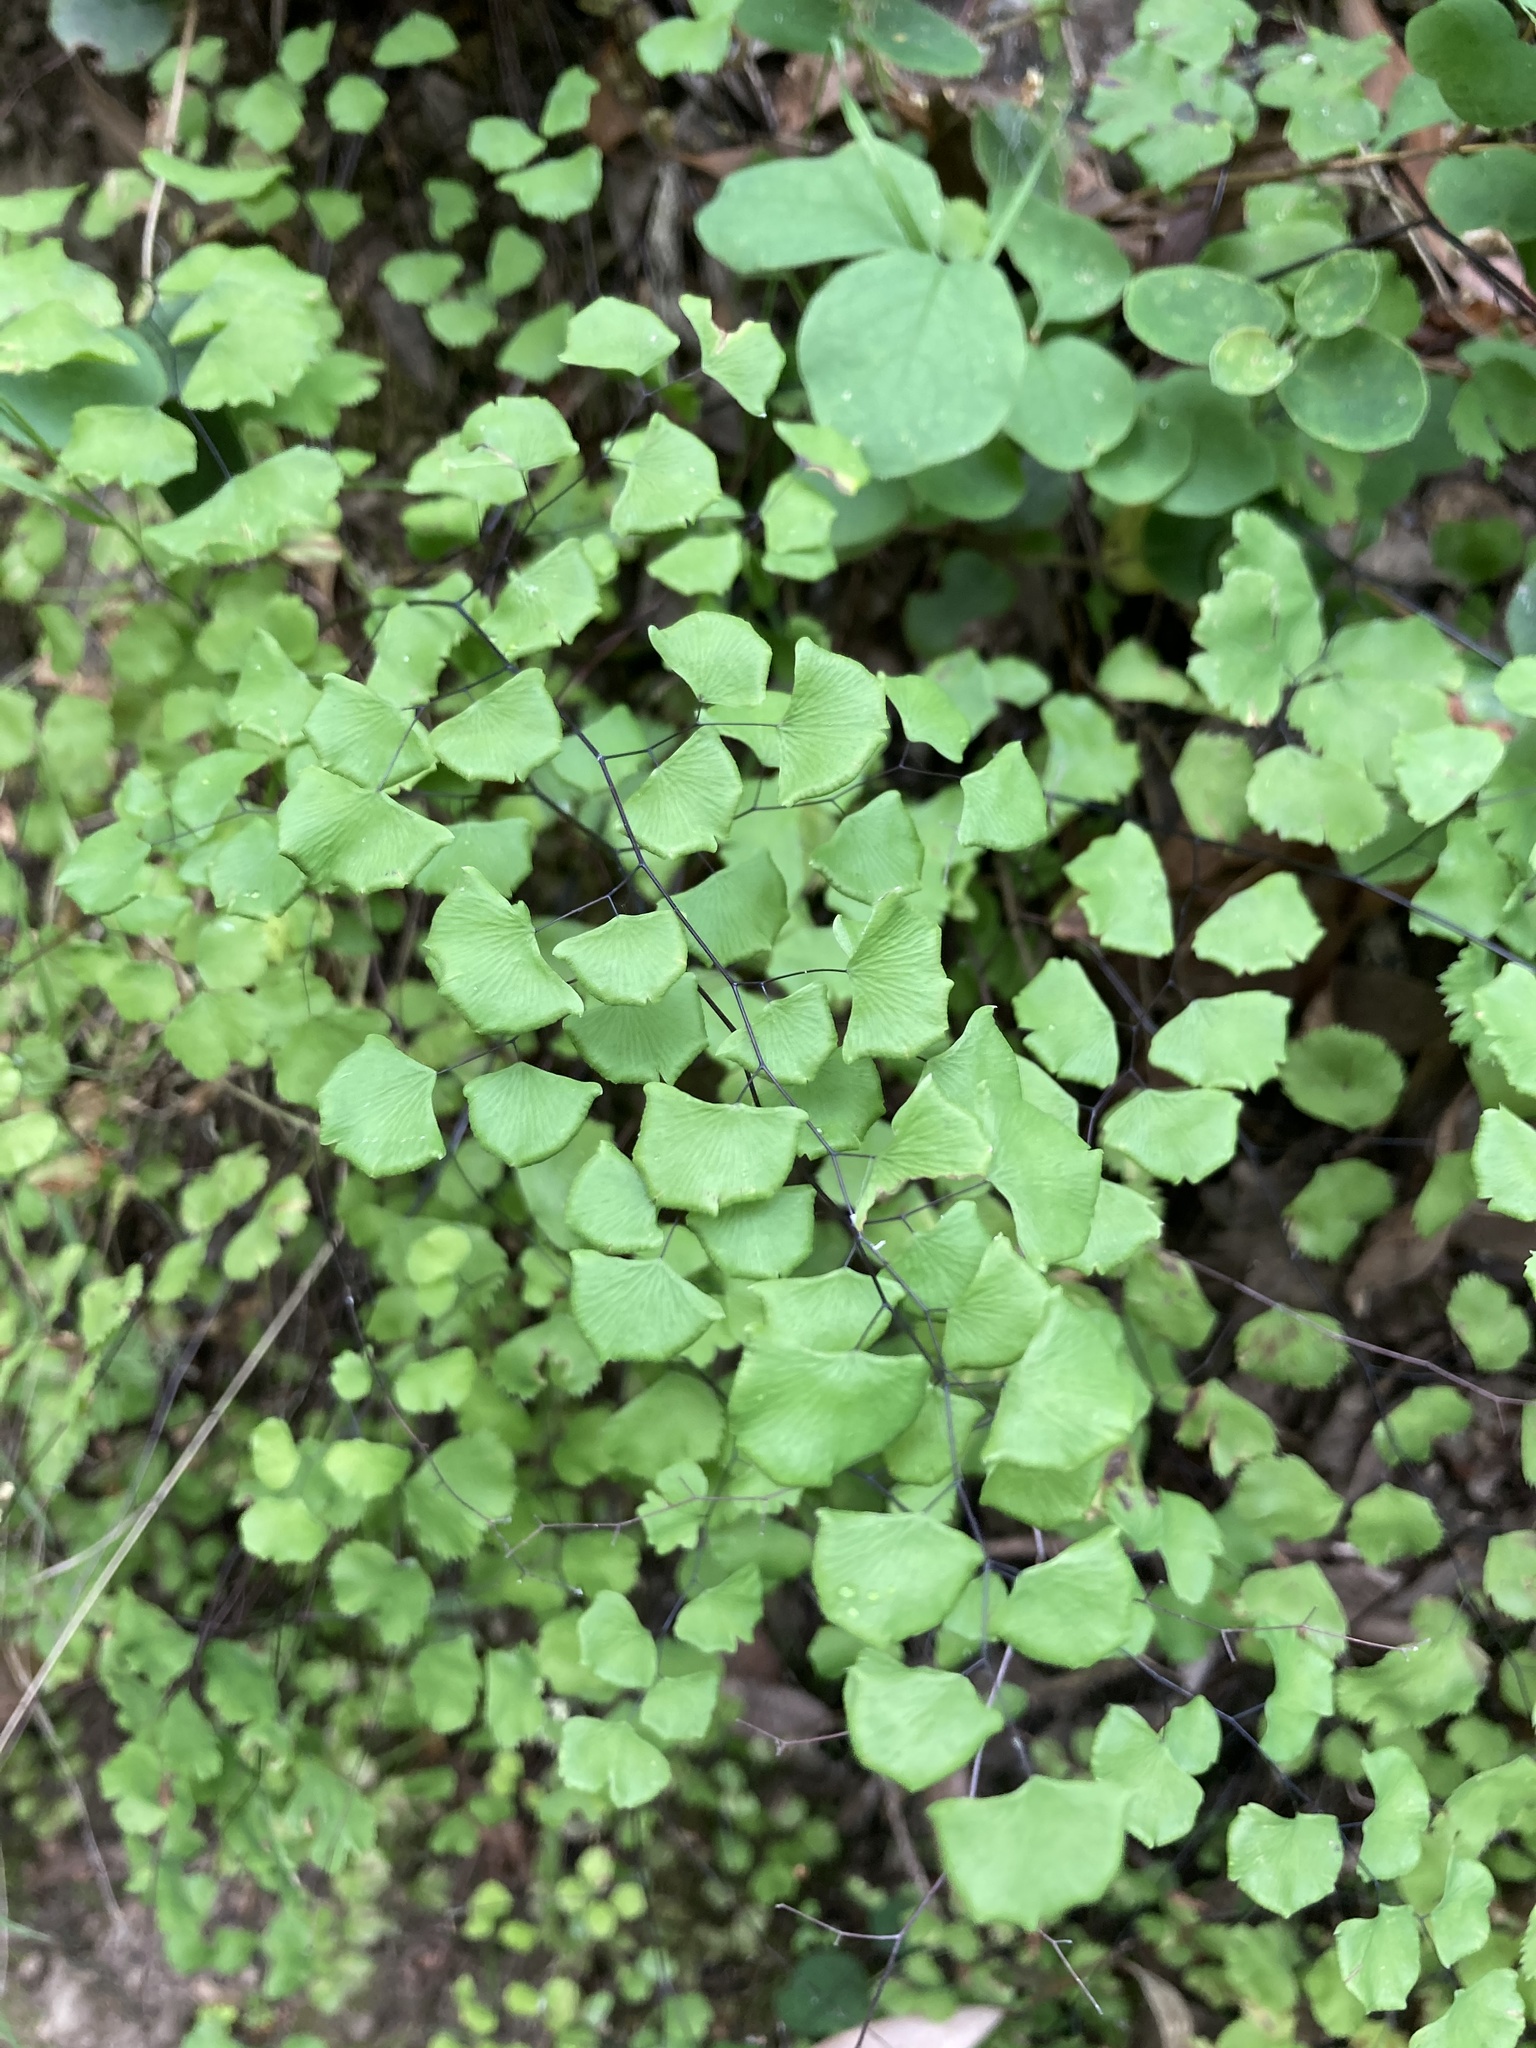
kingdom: Plantae
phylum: Tracheophyta
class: Polypodiopsida
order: Polypodiales
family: Pteridaceae
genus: Adiantum
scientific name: Adiantum jordanii
